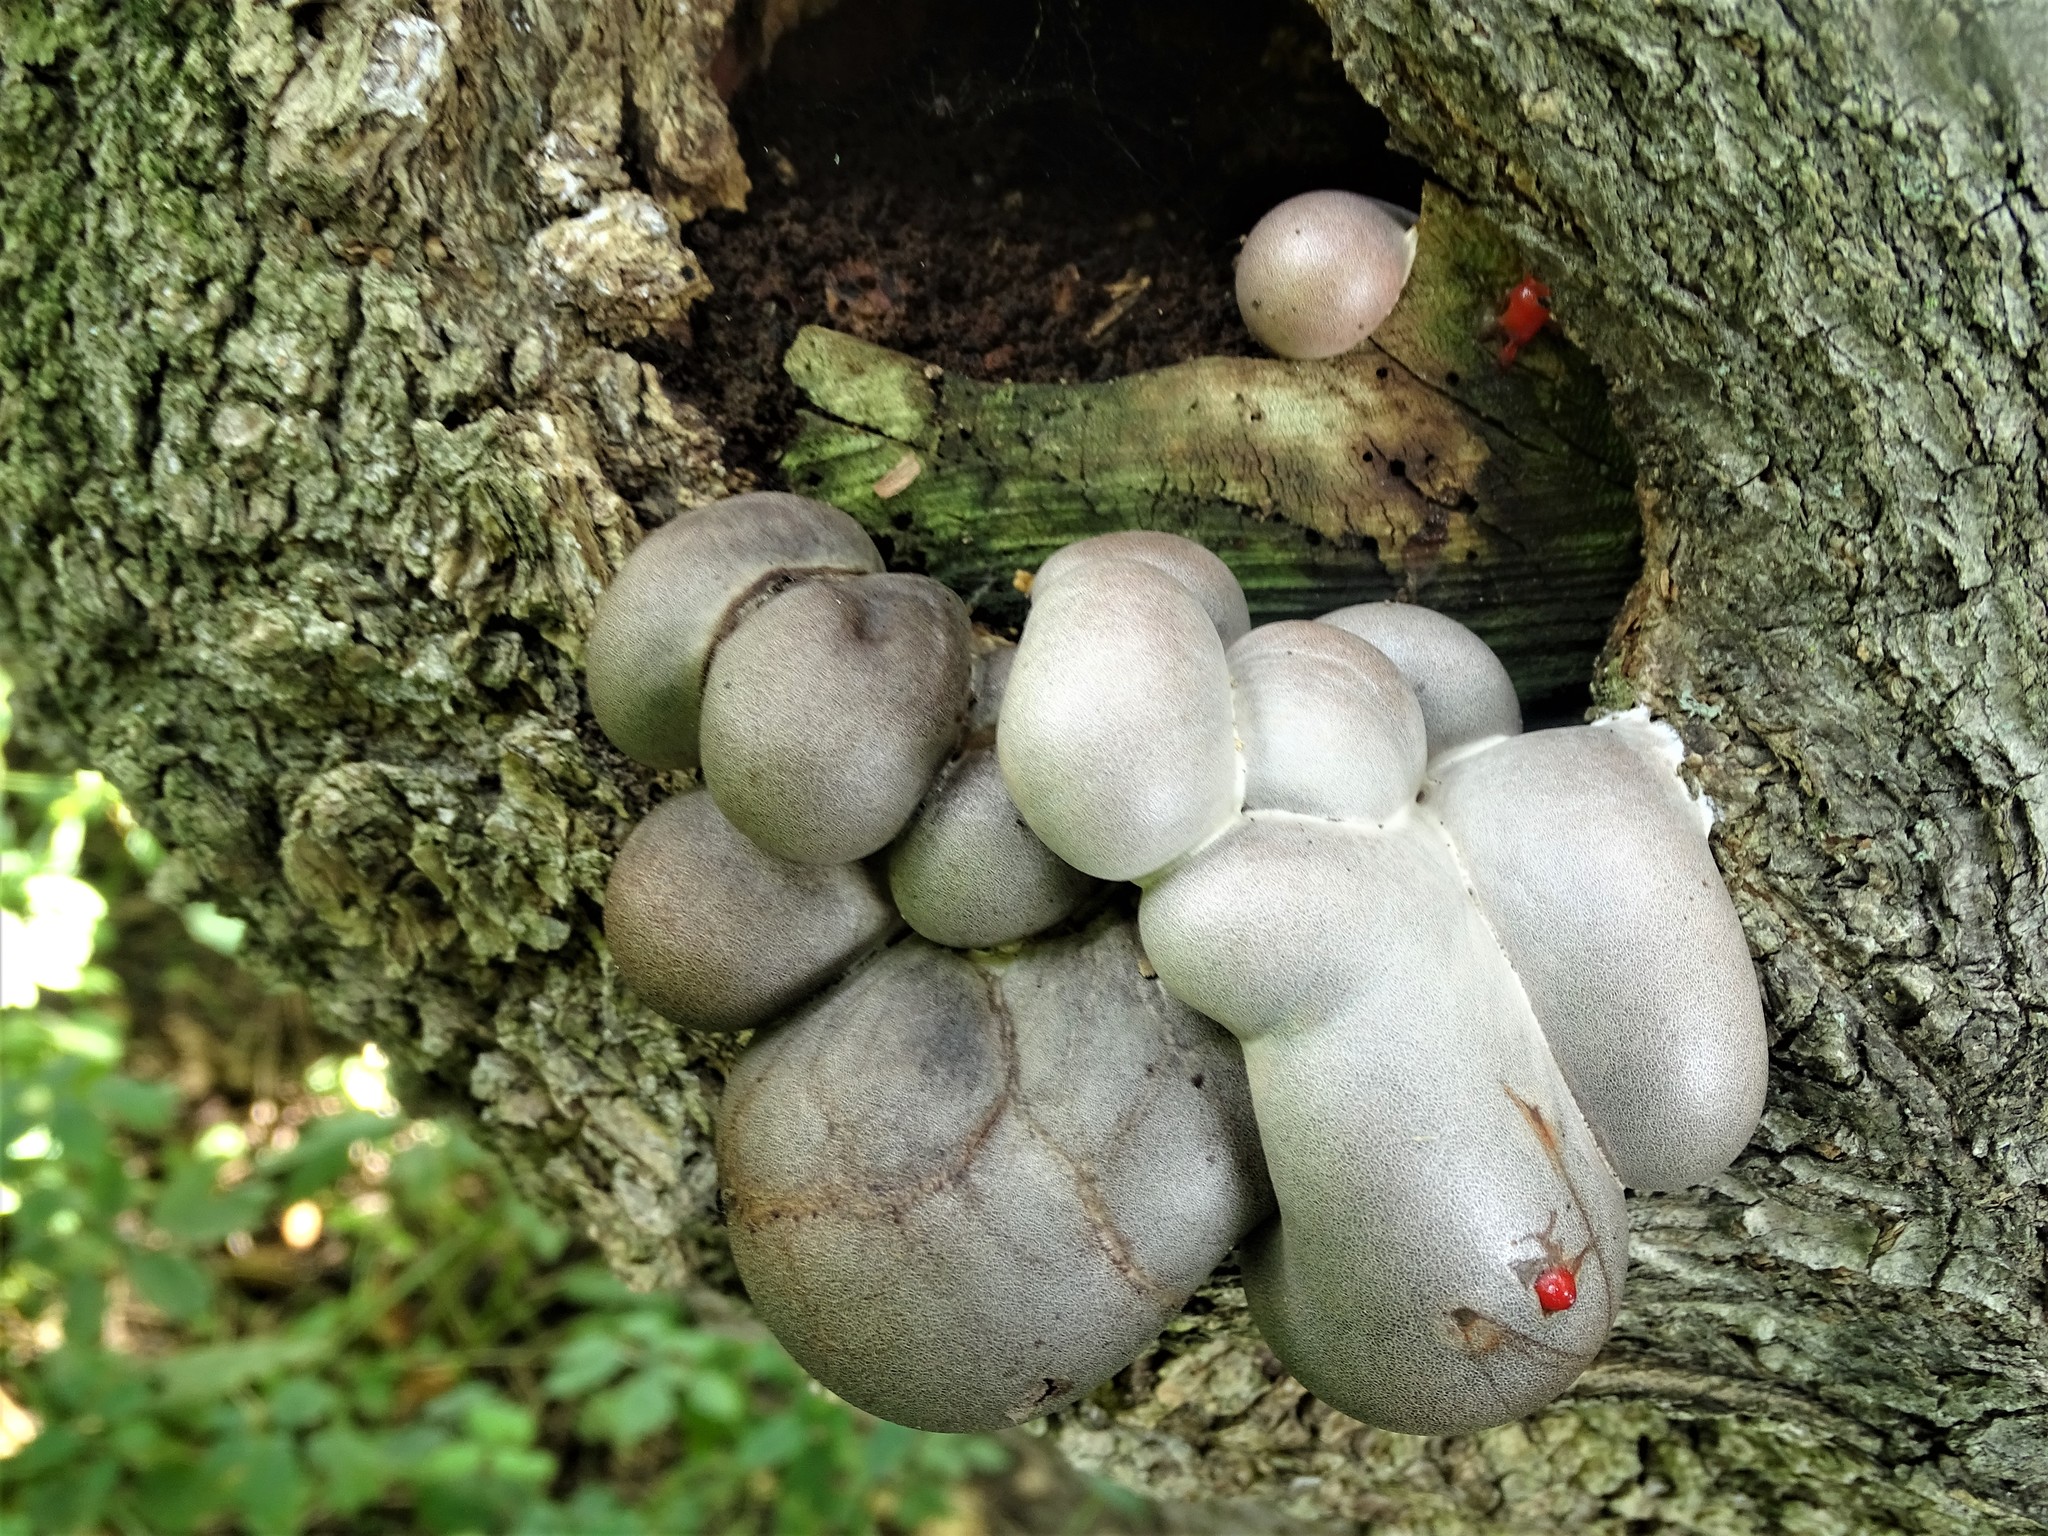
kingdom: Protozoa
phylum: Mycetozoa
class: Myxomycetes
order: Cribrariales
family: Tubiferaceae
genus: Lycogala
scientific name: Lycogala flavofuscum
